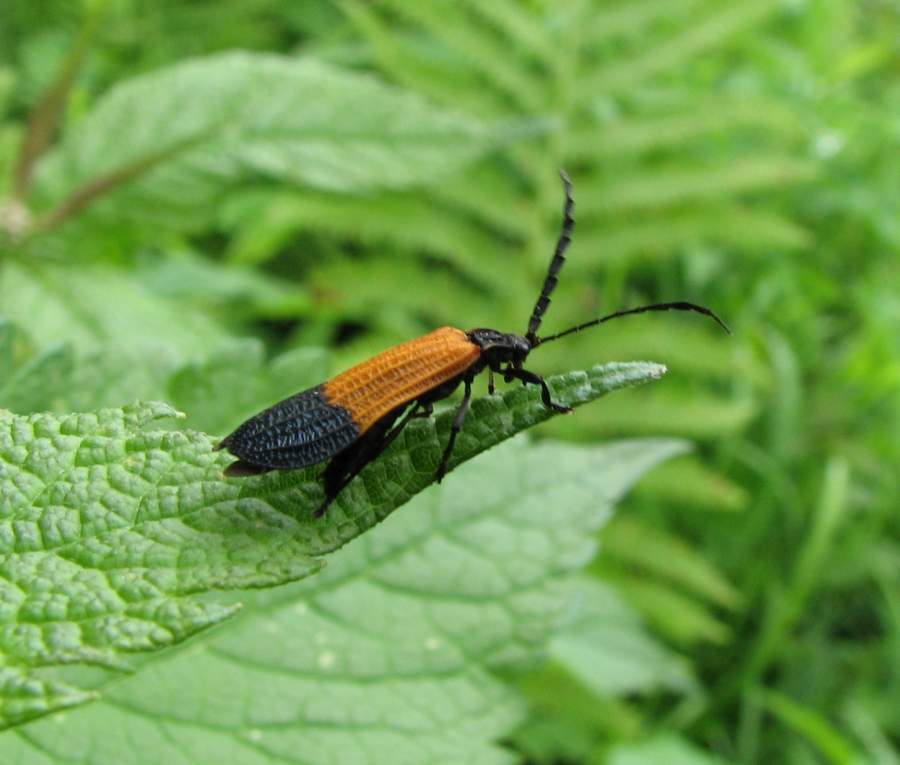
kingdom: Animalia
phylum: Arthropoda
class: Insecta
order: Coleoptera
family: Lycidae
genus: Calopteron
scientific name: Calopteron terminale
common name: End band net-winged beetle
